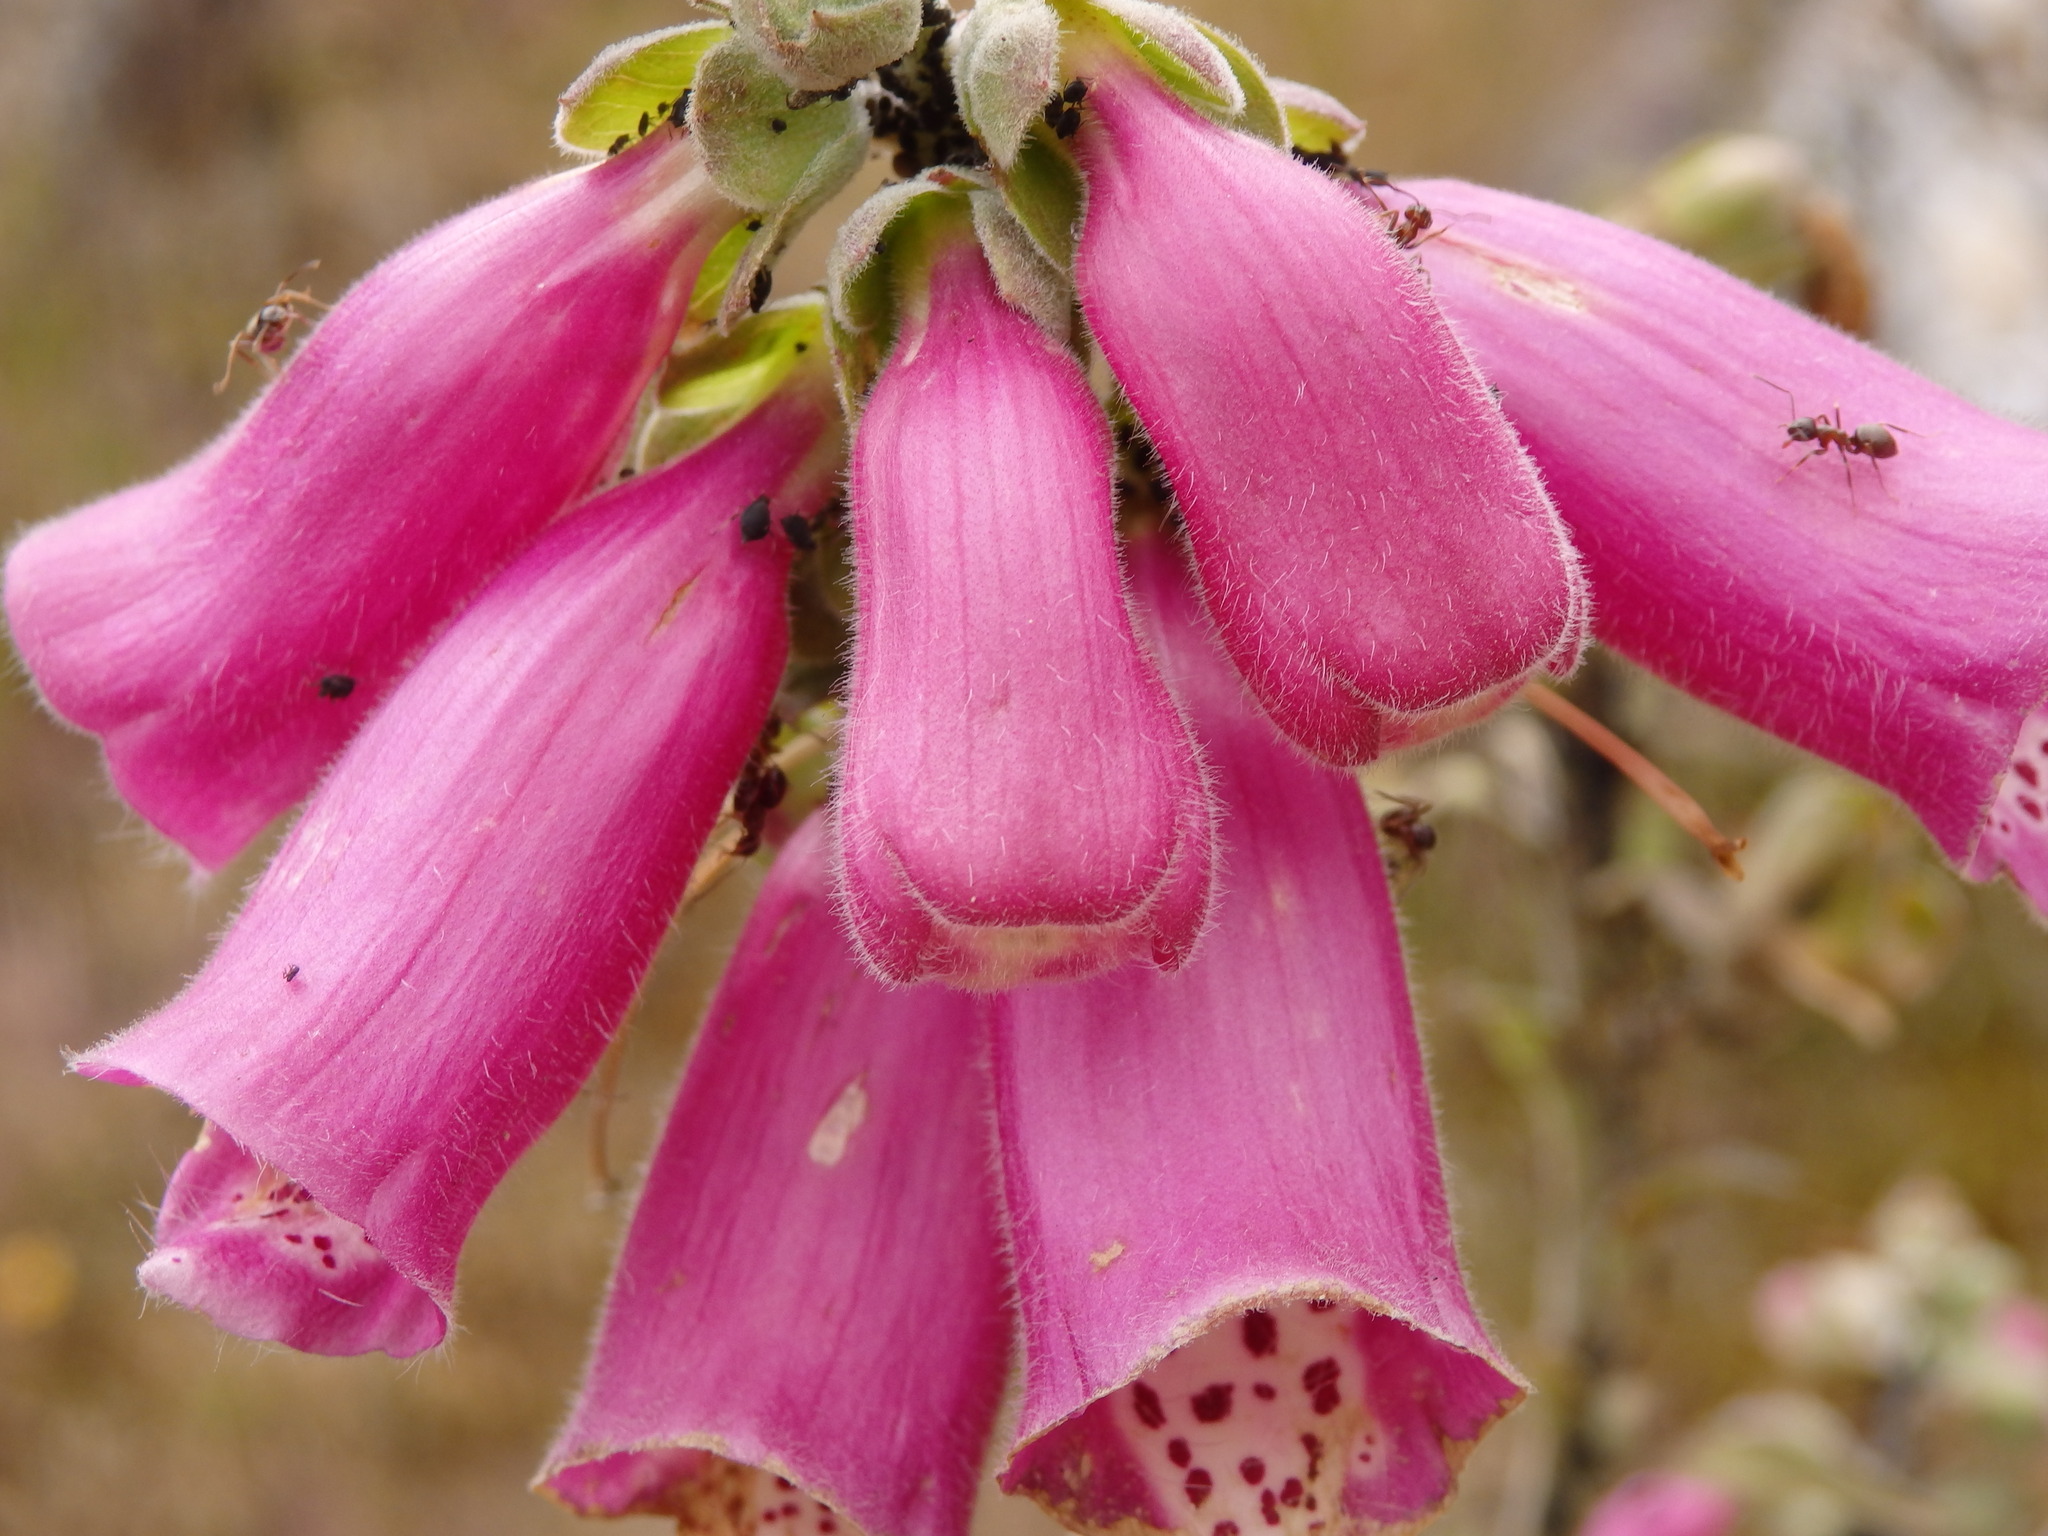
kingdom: Plantae
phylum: Tracheophyta
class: Magnoliopsida
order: Lamiales
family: Plantaginaceae
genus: Digitalis
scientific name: Digitalis purpurea
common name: Foxglove
